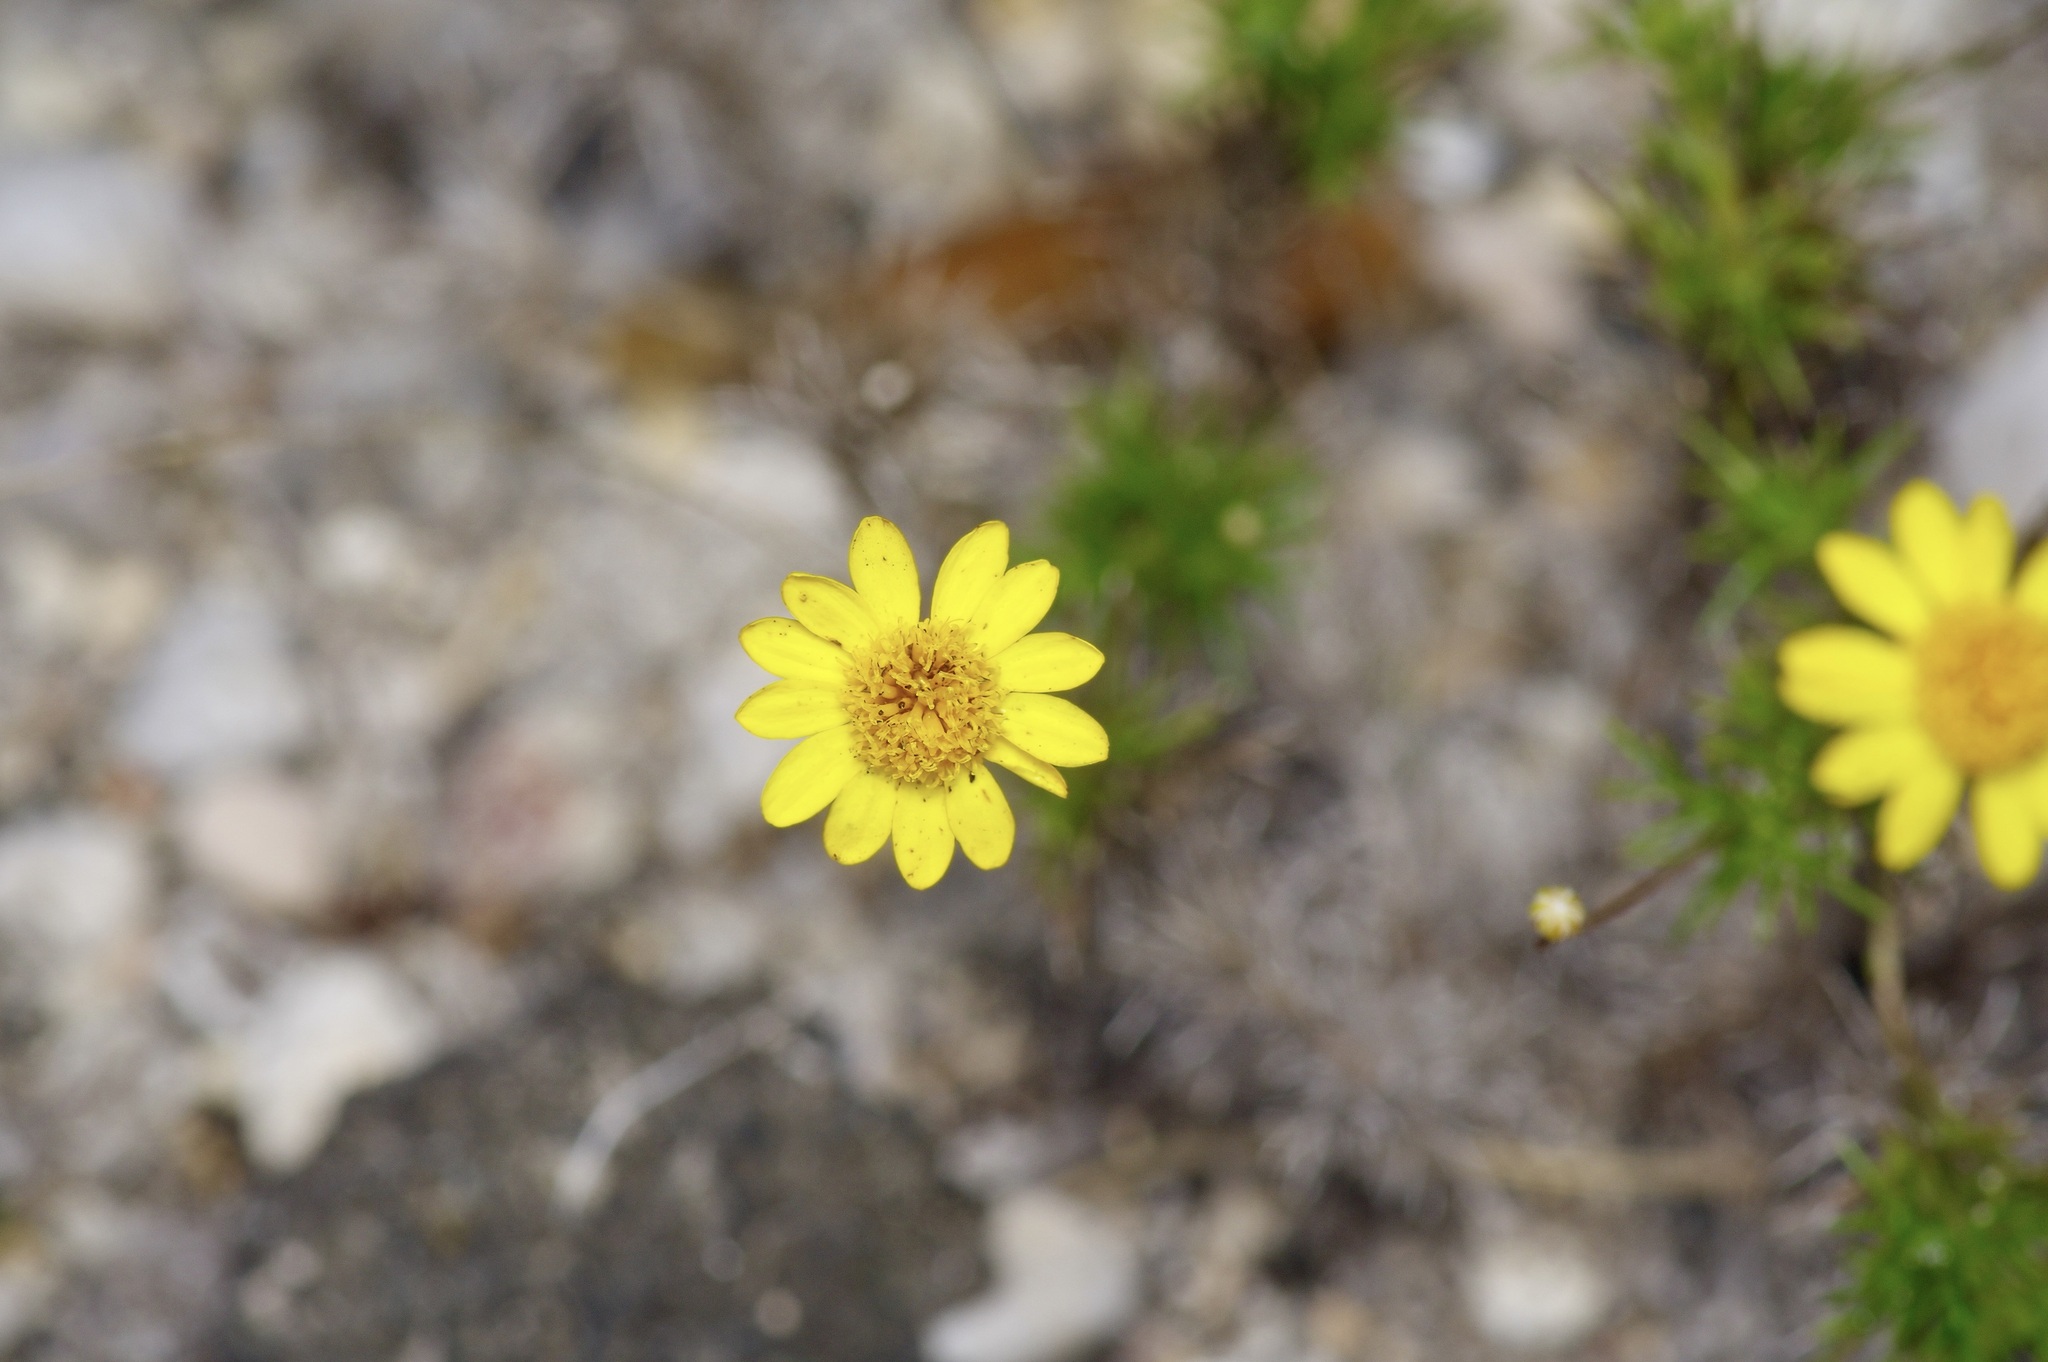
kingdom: Plantae
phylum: Tracheophyta
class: Magnoliopsida
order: Asterales
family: Asteraceae
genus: Thymophylla
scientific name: Thymophylla pentachaeta
